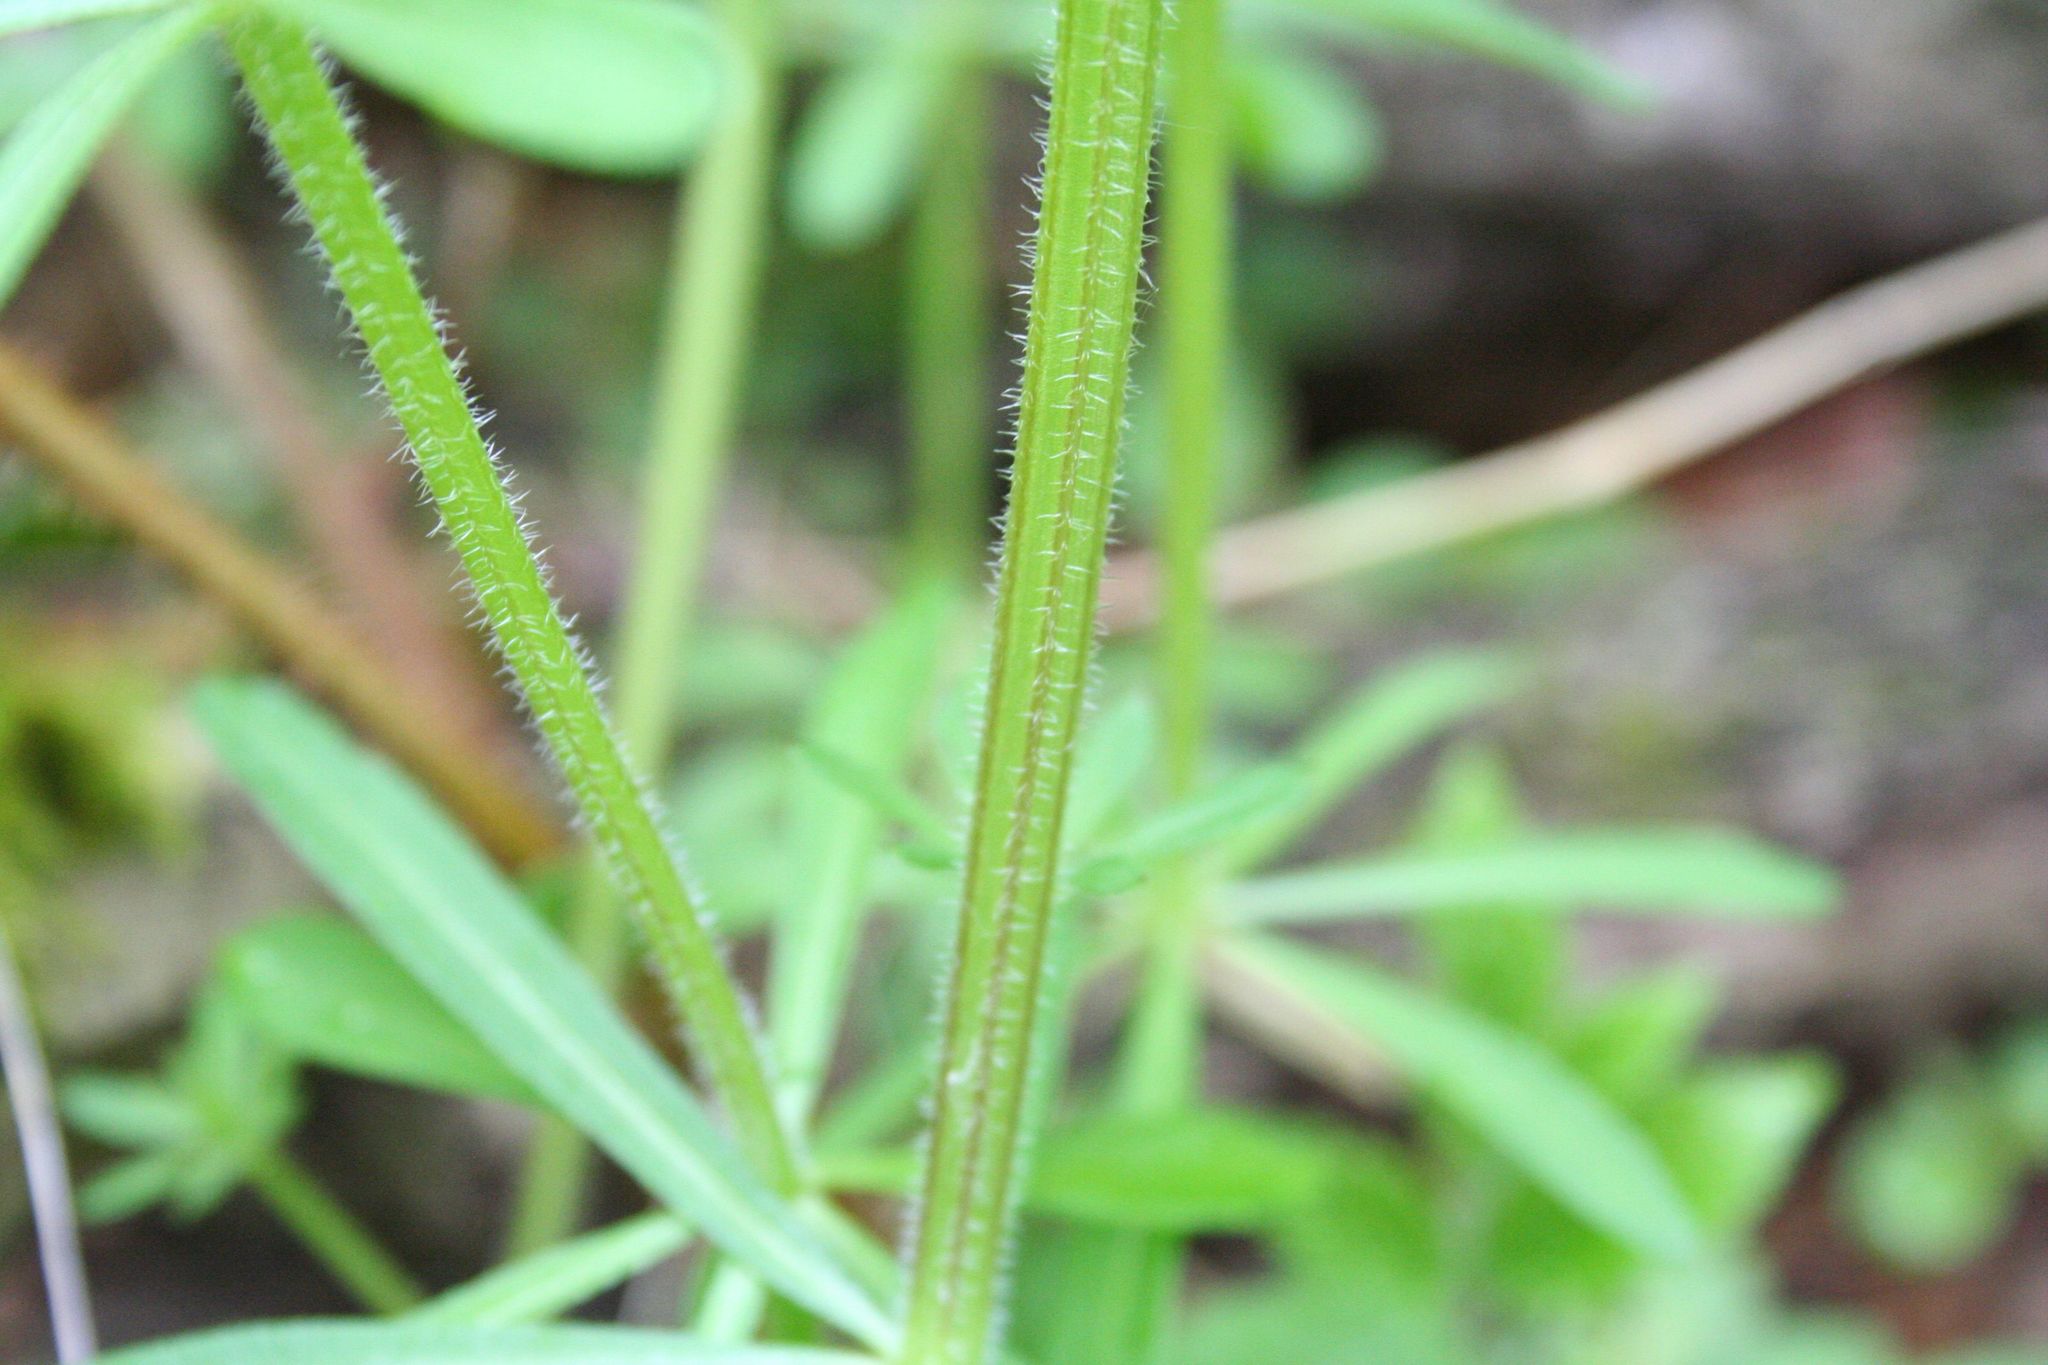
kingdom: Plantae
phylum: Tracheophyta
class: Magnoliopsida
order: Gentianales
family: Rubiaceae
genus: Galium
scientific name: Galium aparine
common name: Cleavers
